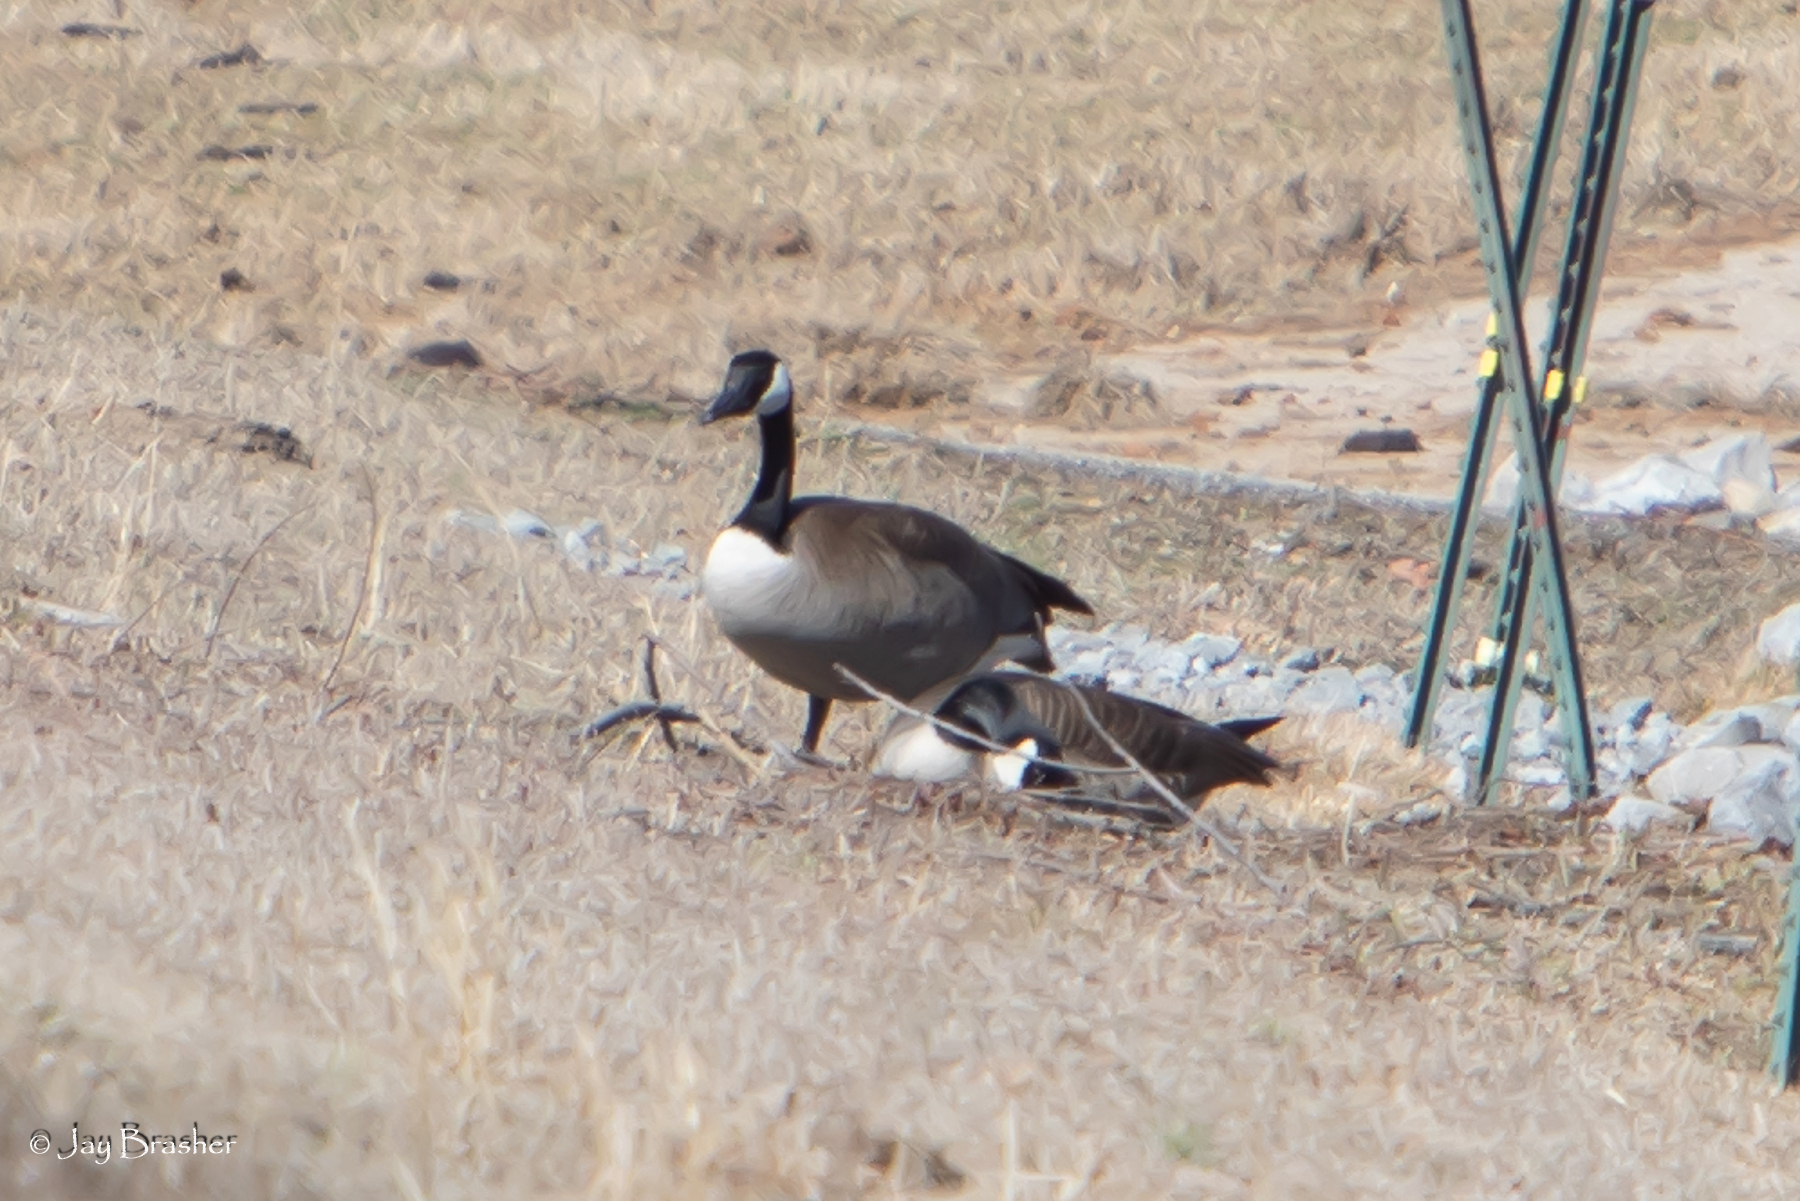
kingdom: Animalia
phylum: Chordata
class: Aves
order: Anseriformes
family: Anatidae
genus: Branta
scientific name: Branta canadensis
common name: Canada goose
